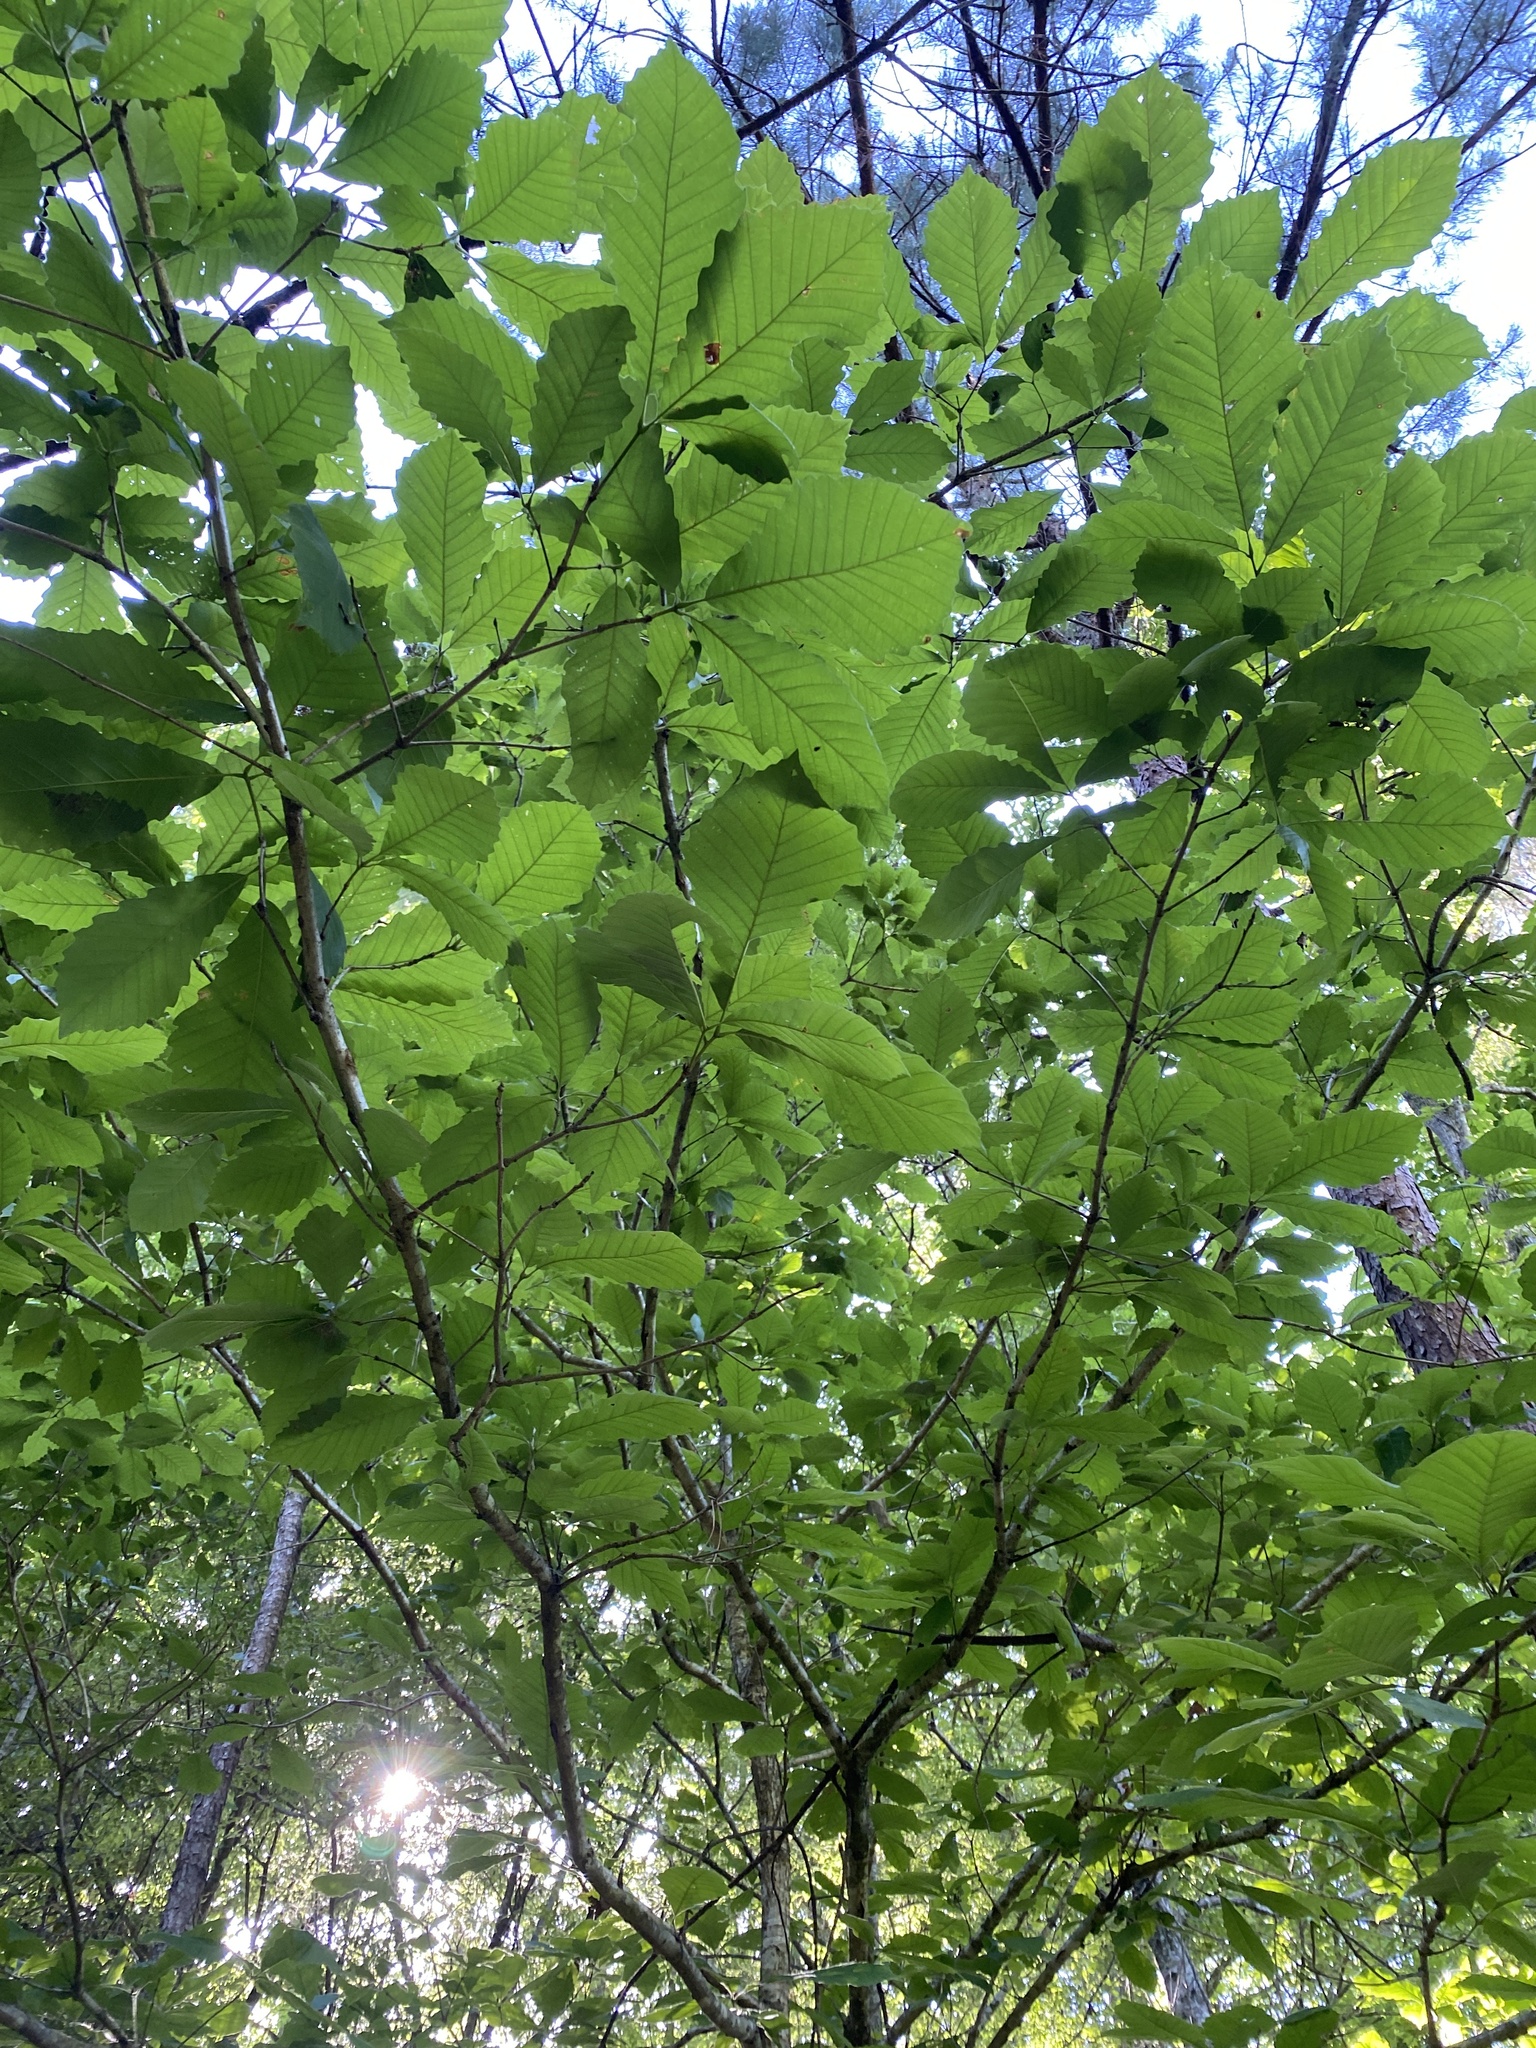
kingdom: Plantae
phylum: Tracheophyta
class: Magnoliopsida
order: Fagales
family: Fagaceae
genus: Quercus
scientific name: Quercus michauxii
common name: Swamp chestnut oak
